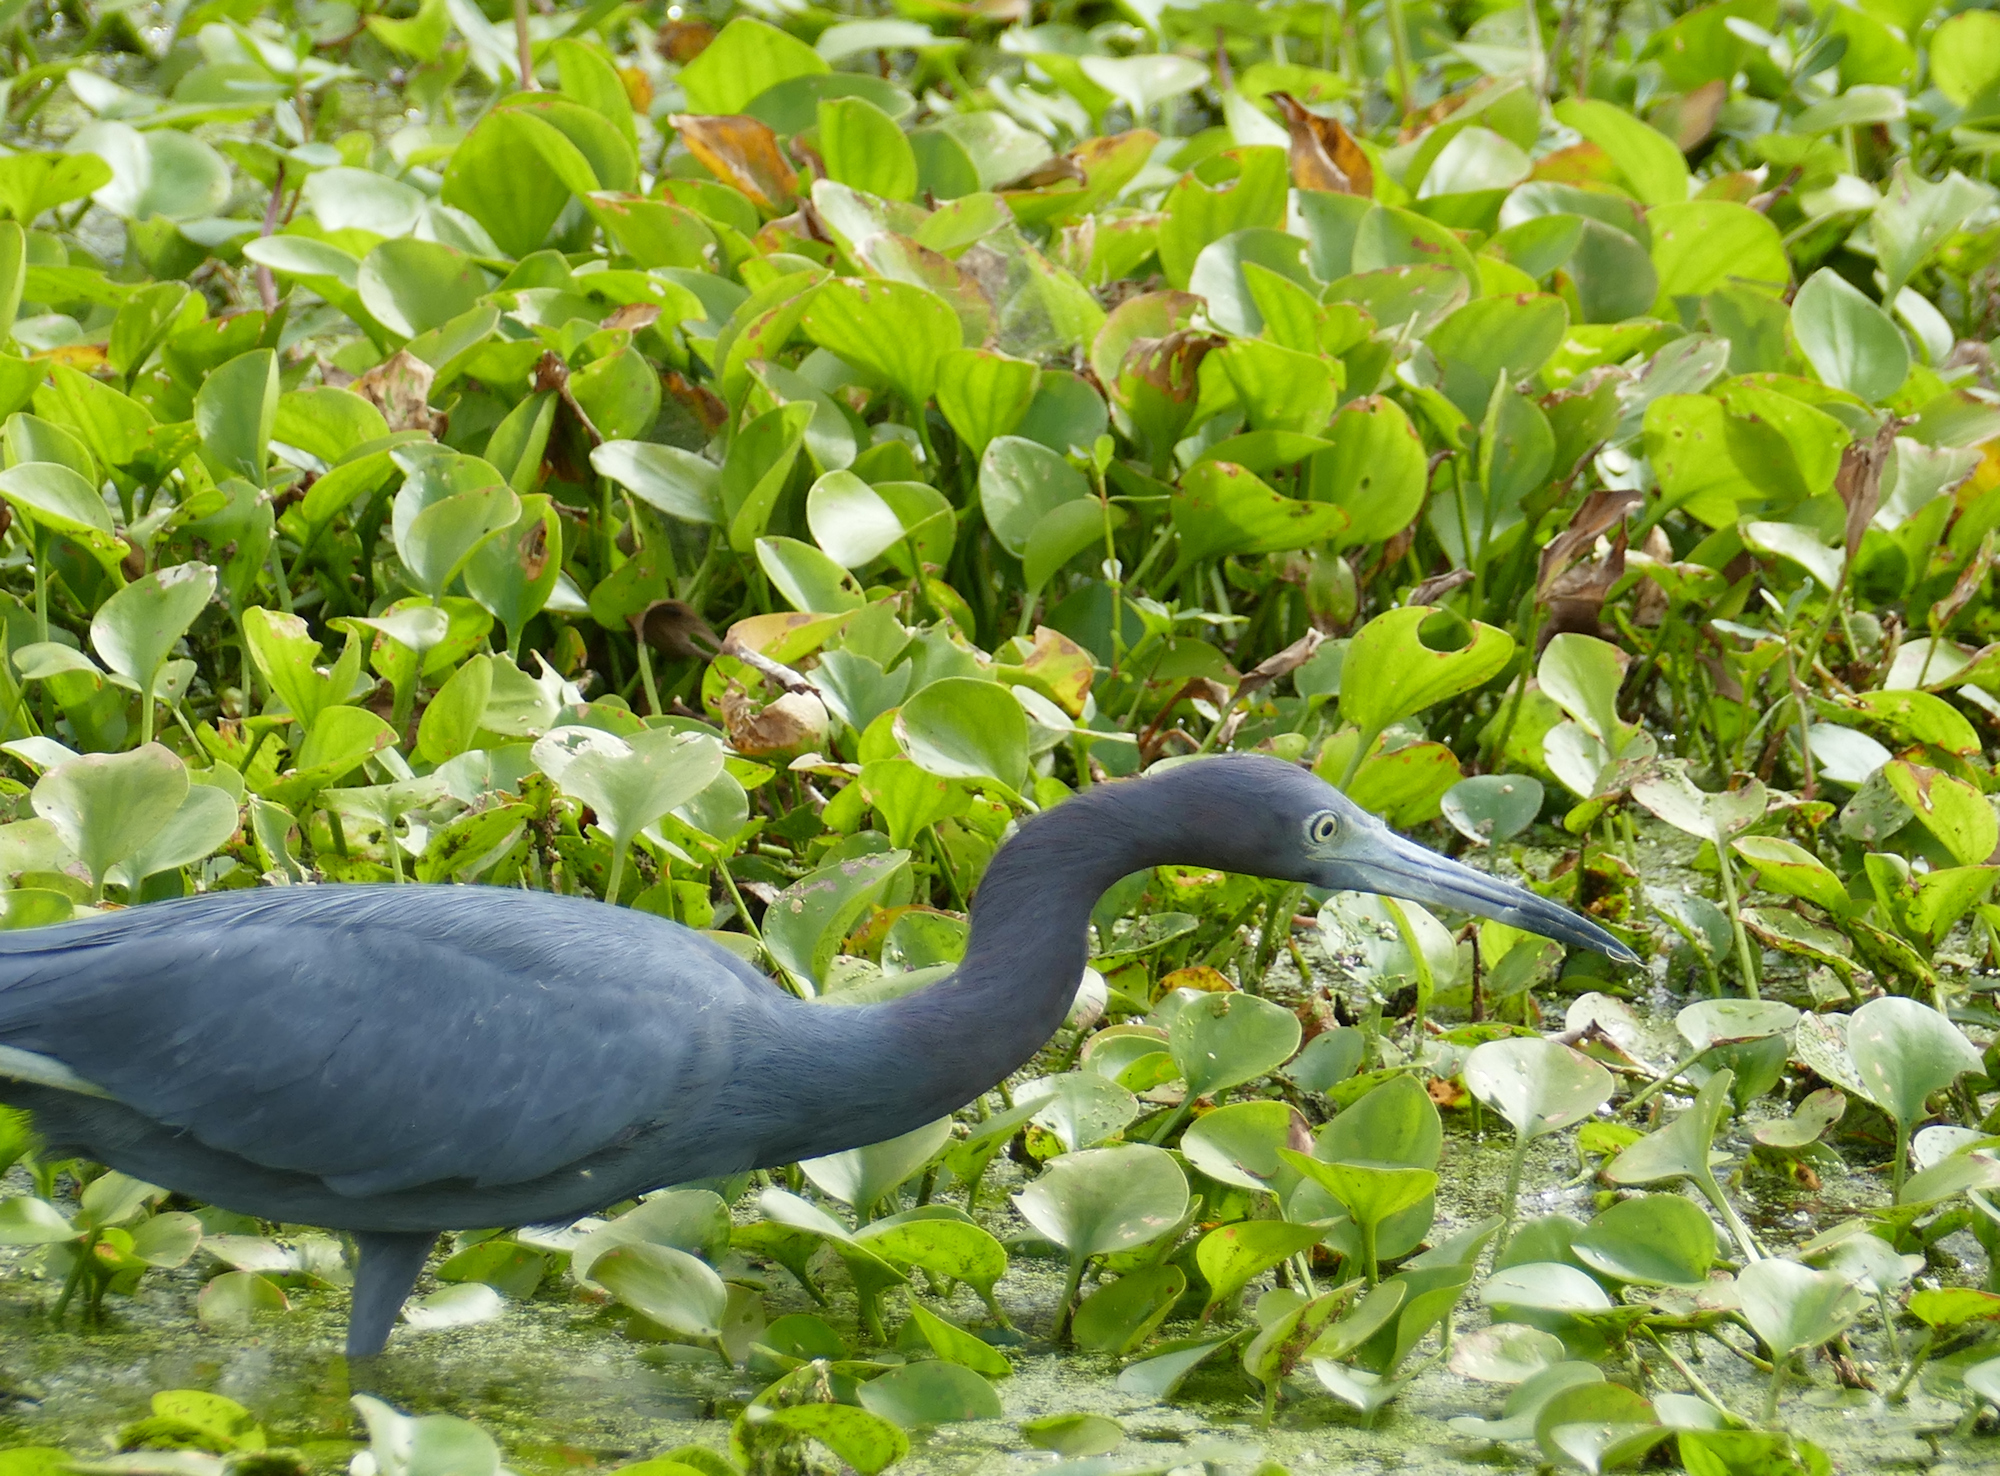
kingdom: Animalia
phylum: Chordata
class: Aves
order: Pelecaniformes
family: Ardeidae
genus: Egretta
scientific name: Egretta caerulea
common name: Little blue heron
